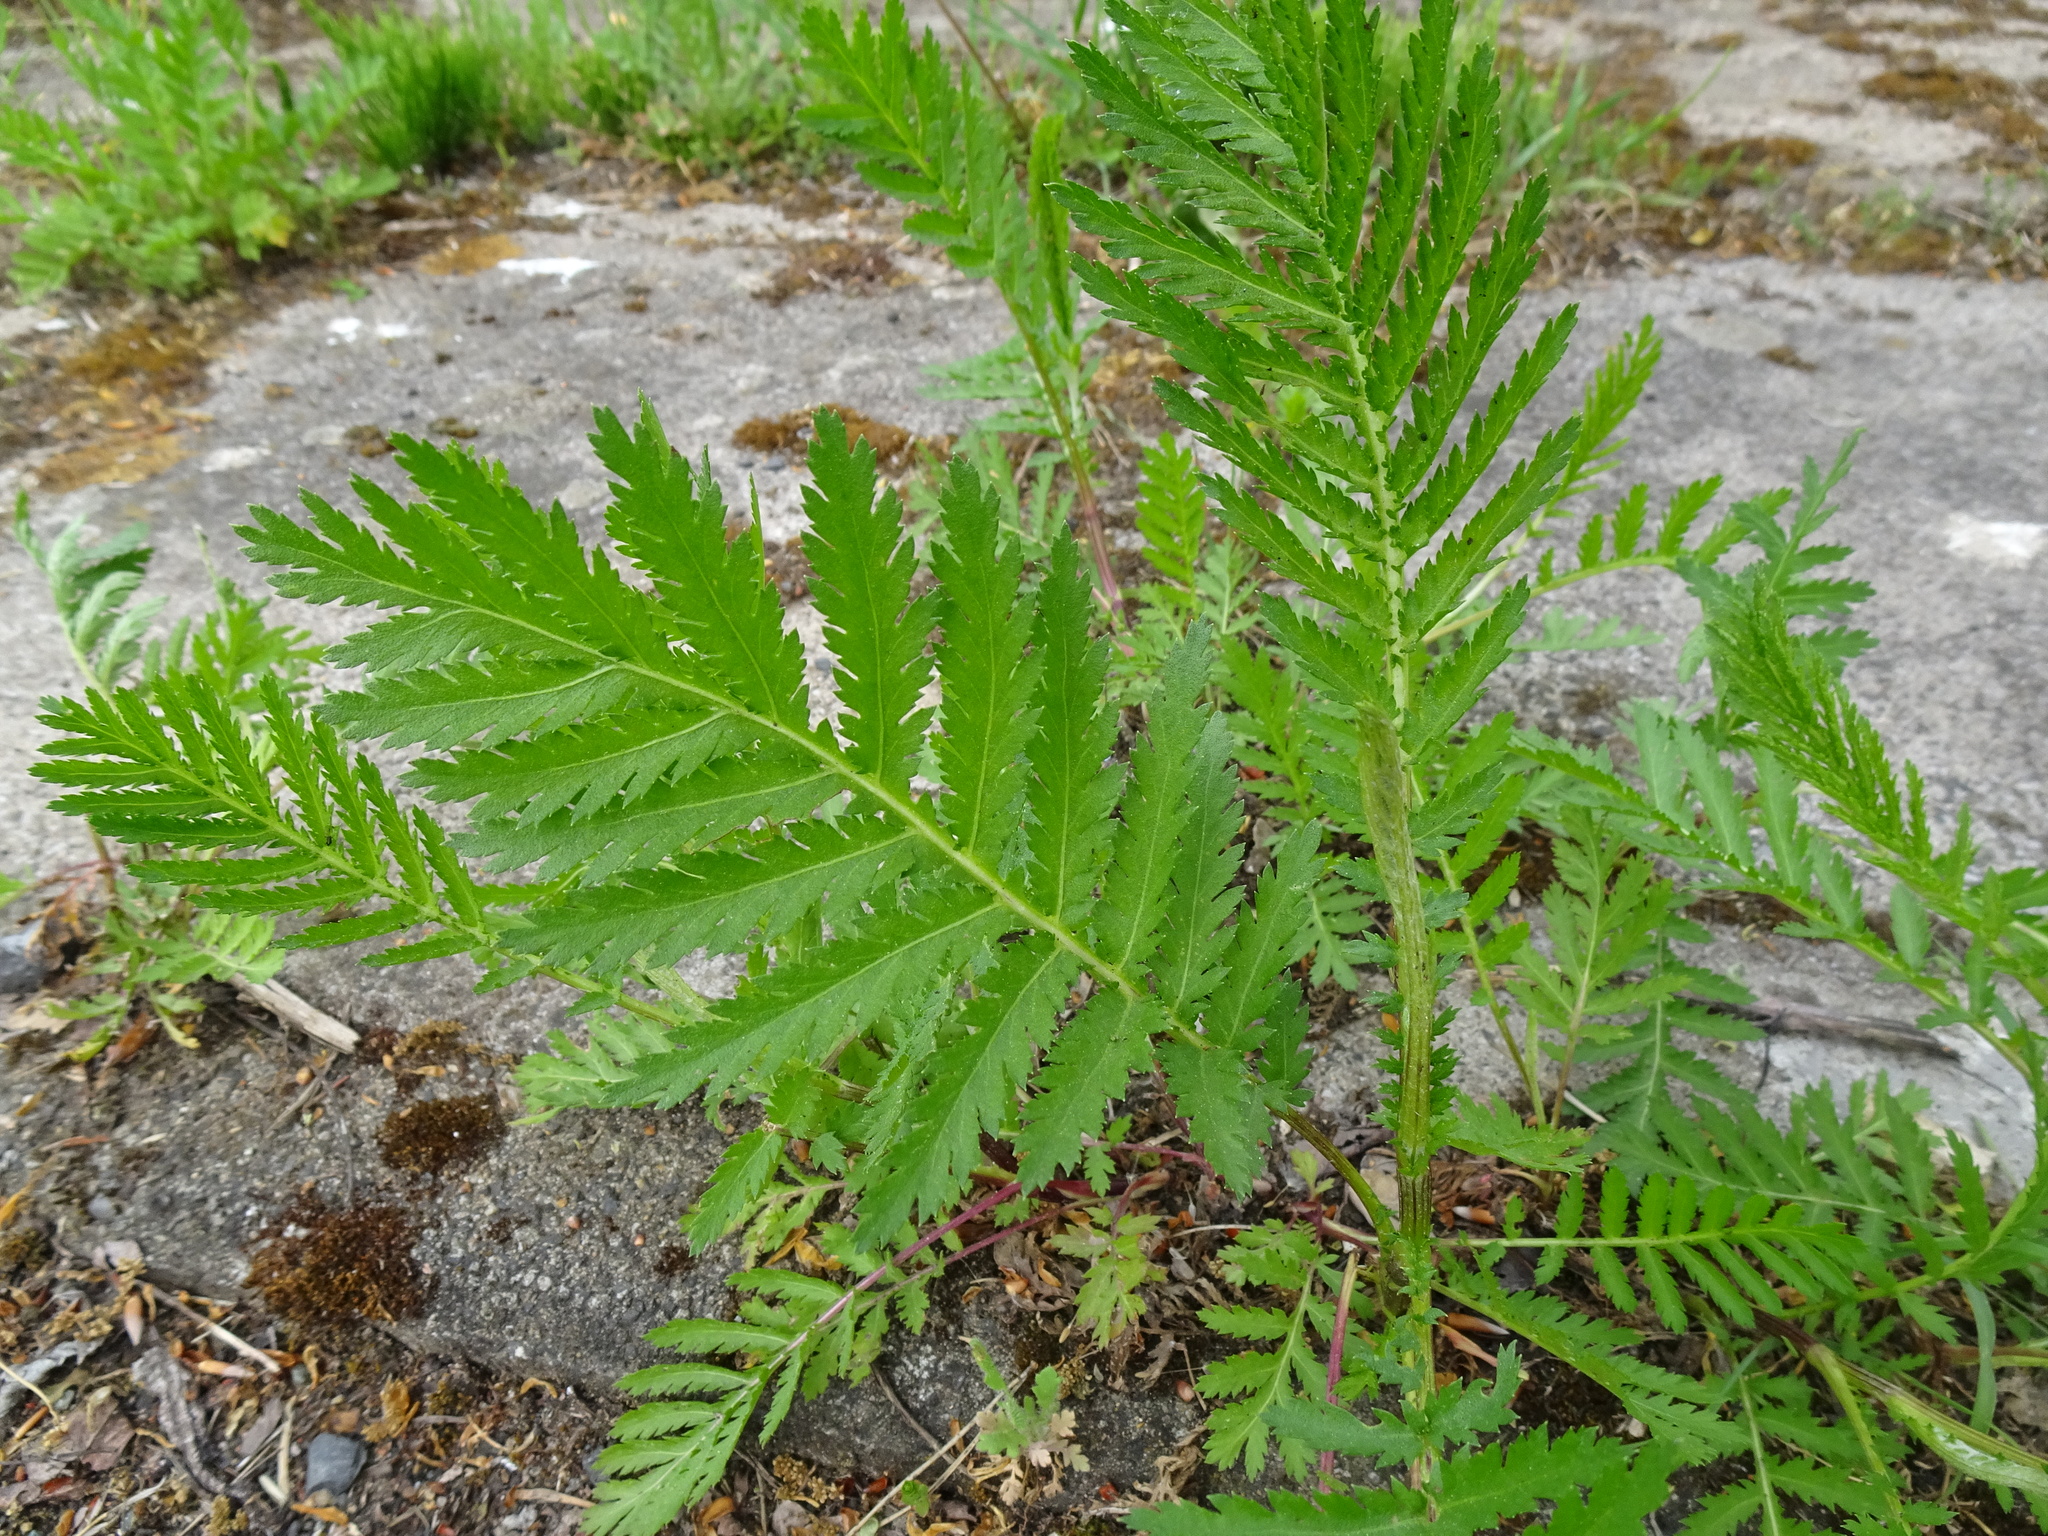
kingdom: Plantae
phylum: Tracheophyta
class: Magnoliopsida
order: Asterales
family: Asteraceae
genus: Tanacetum
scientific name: Tanacetum vulgare
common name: Common tansy
